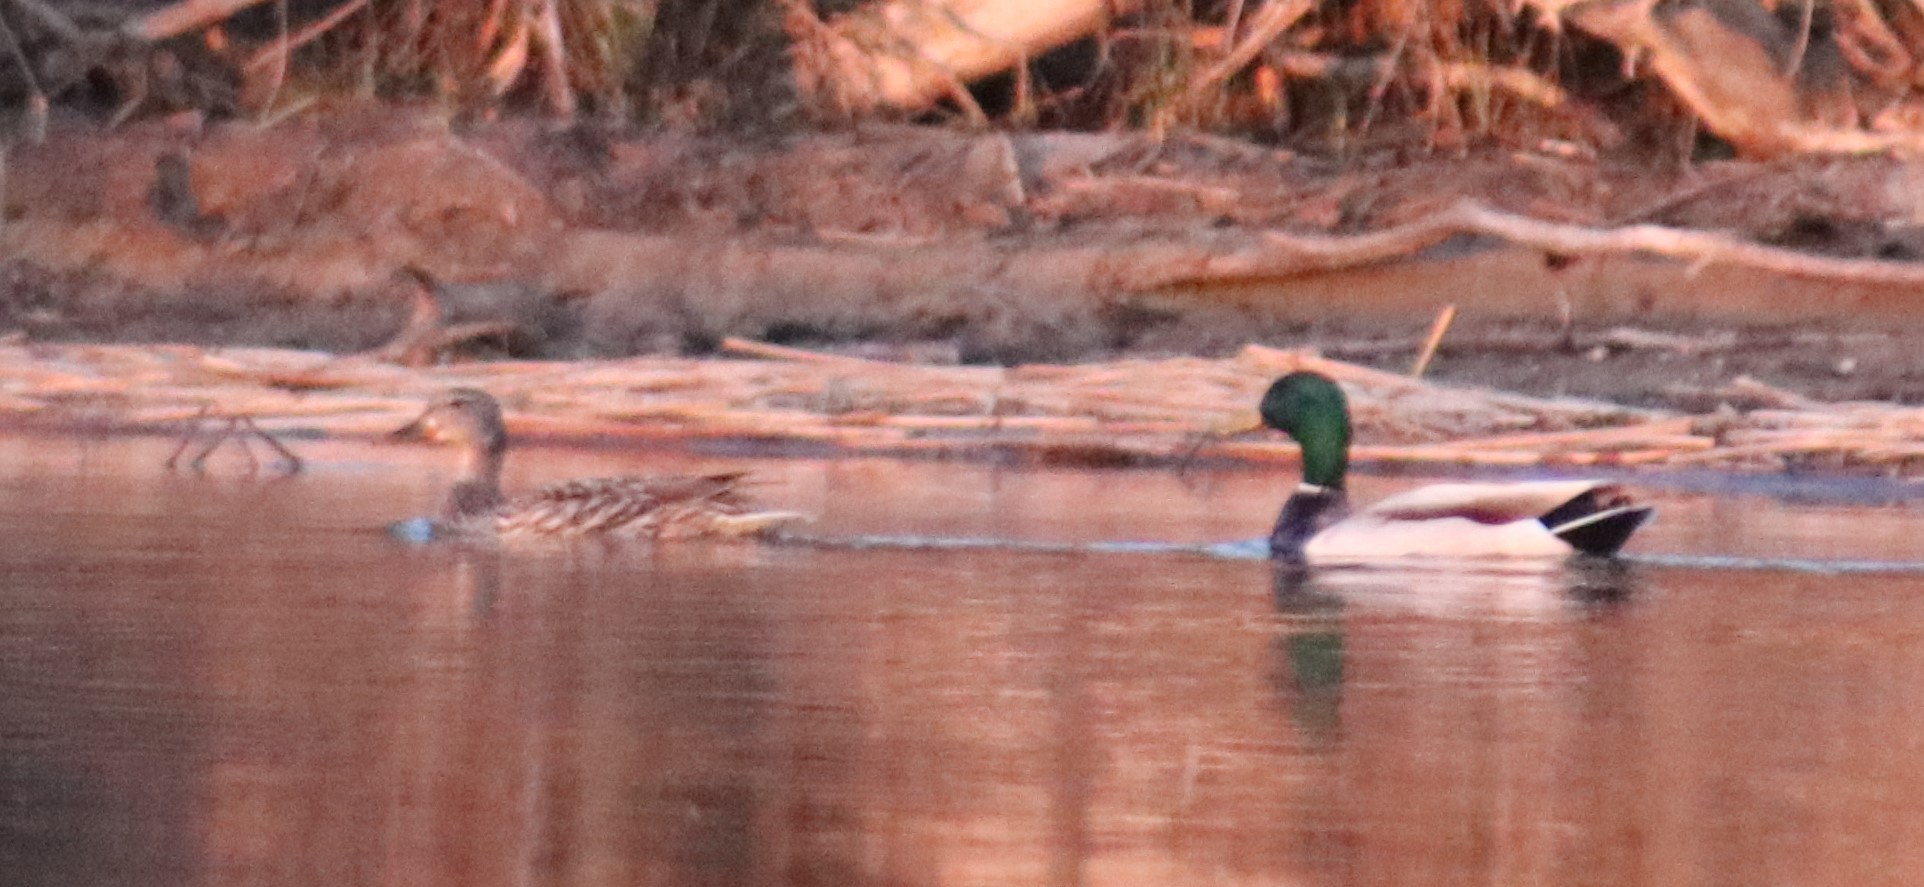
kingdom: Animalia
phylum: Chordata
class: Aves
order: Anseriformes
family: Anatidae
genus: Anas
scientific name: Anas platyrhynchos
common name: Mallard
